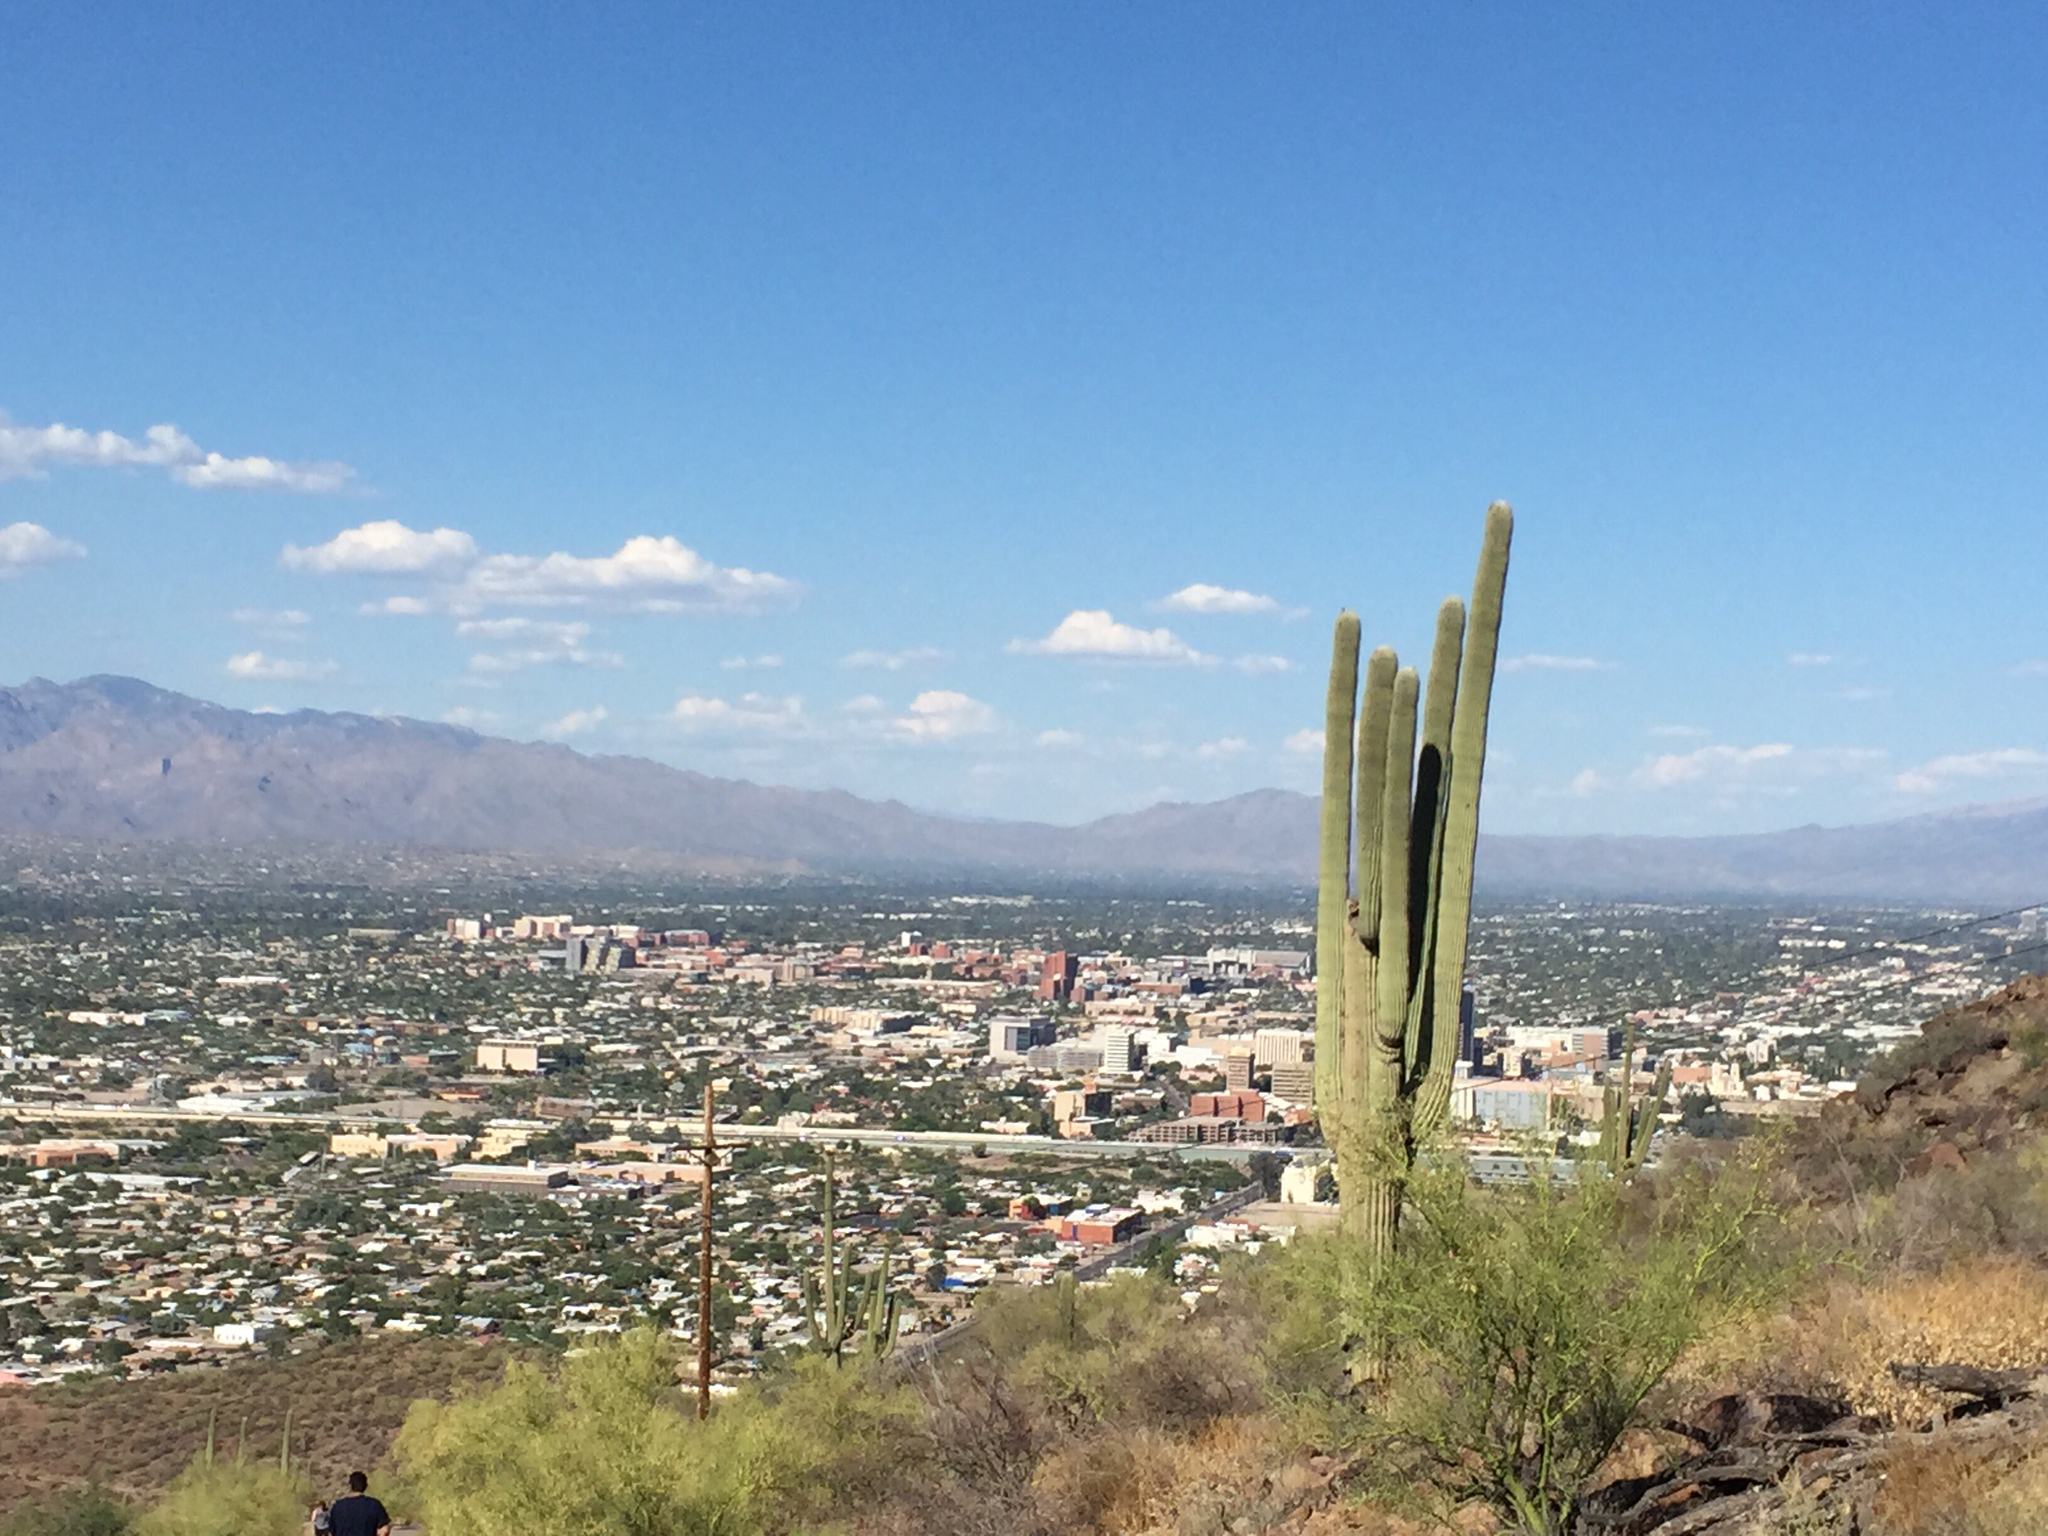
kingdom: Plantae
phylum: Tracheophyta
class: Magnoliopsida
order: Caryophyllales
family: Cactaceae
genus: Carnegiea
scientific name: Carnegiea gigantea
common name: Saguaro
